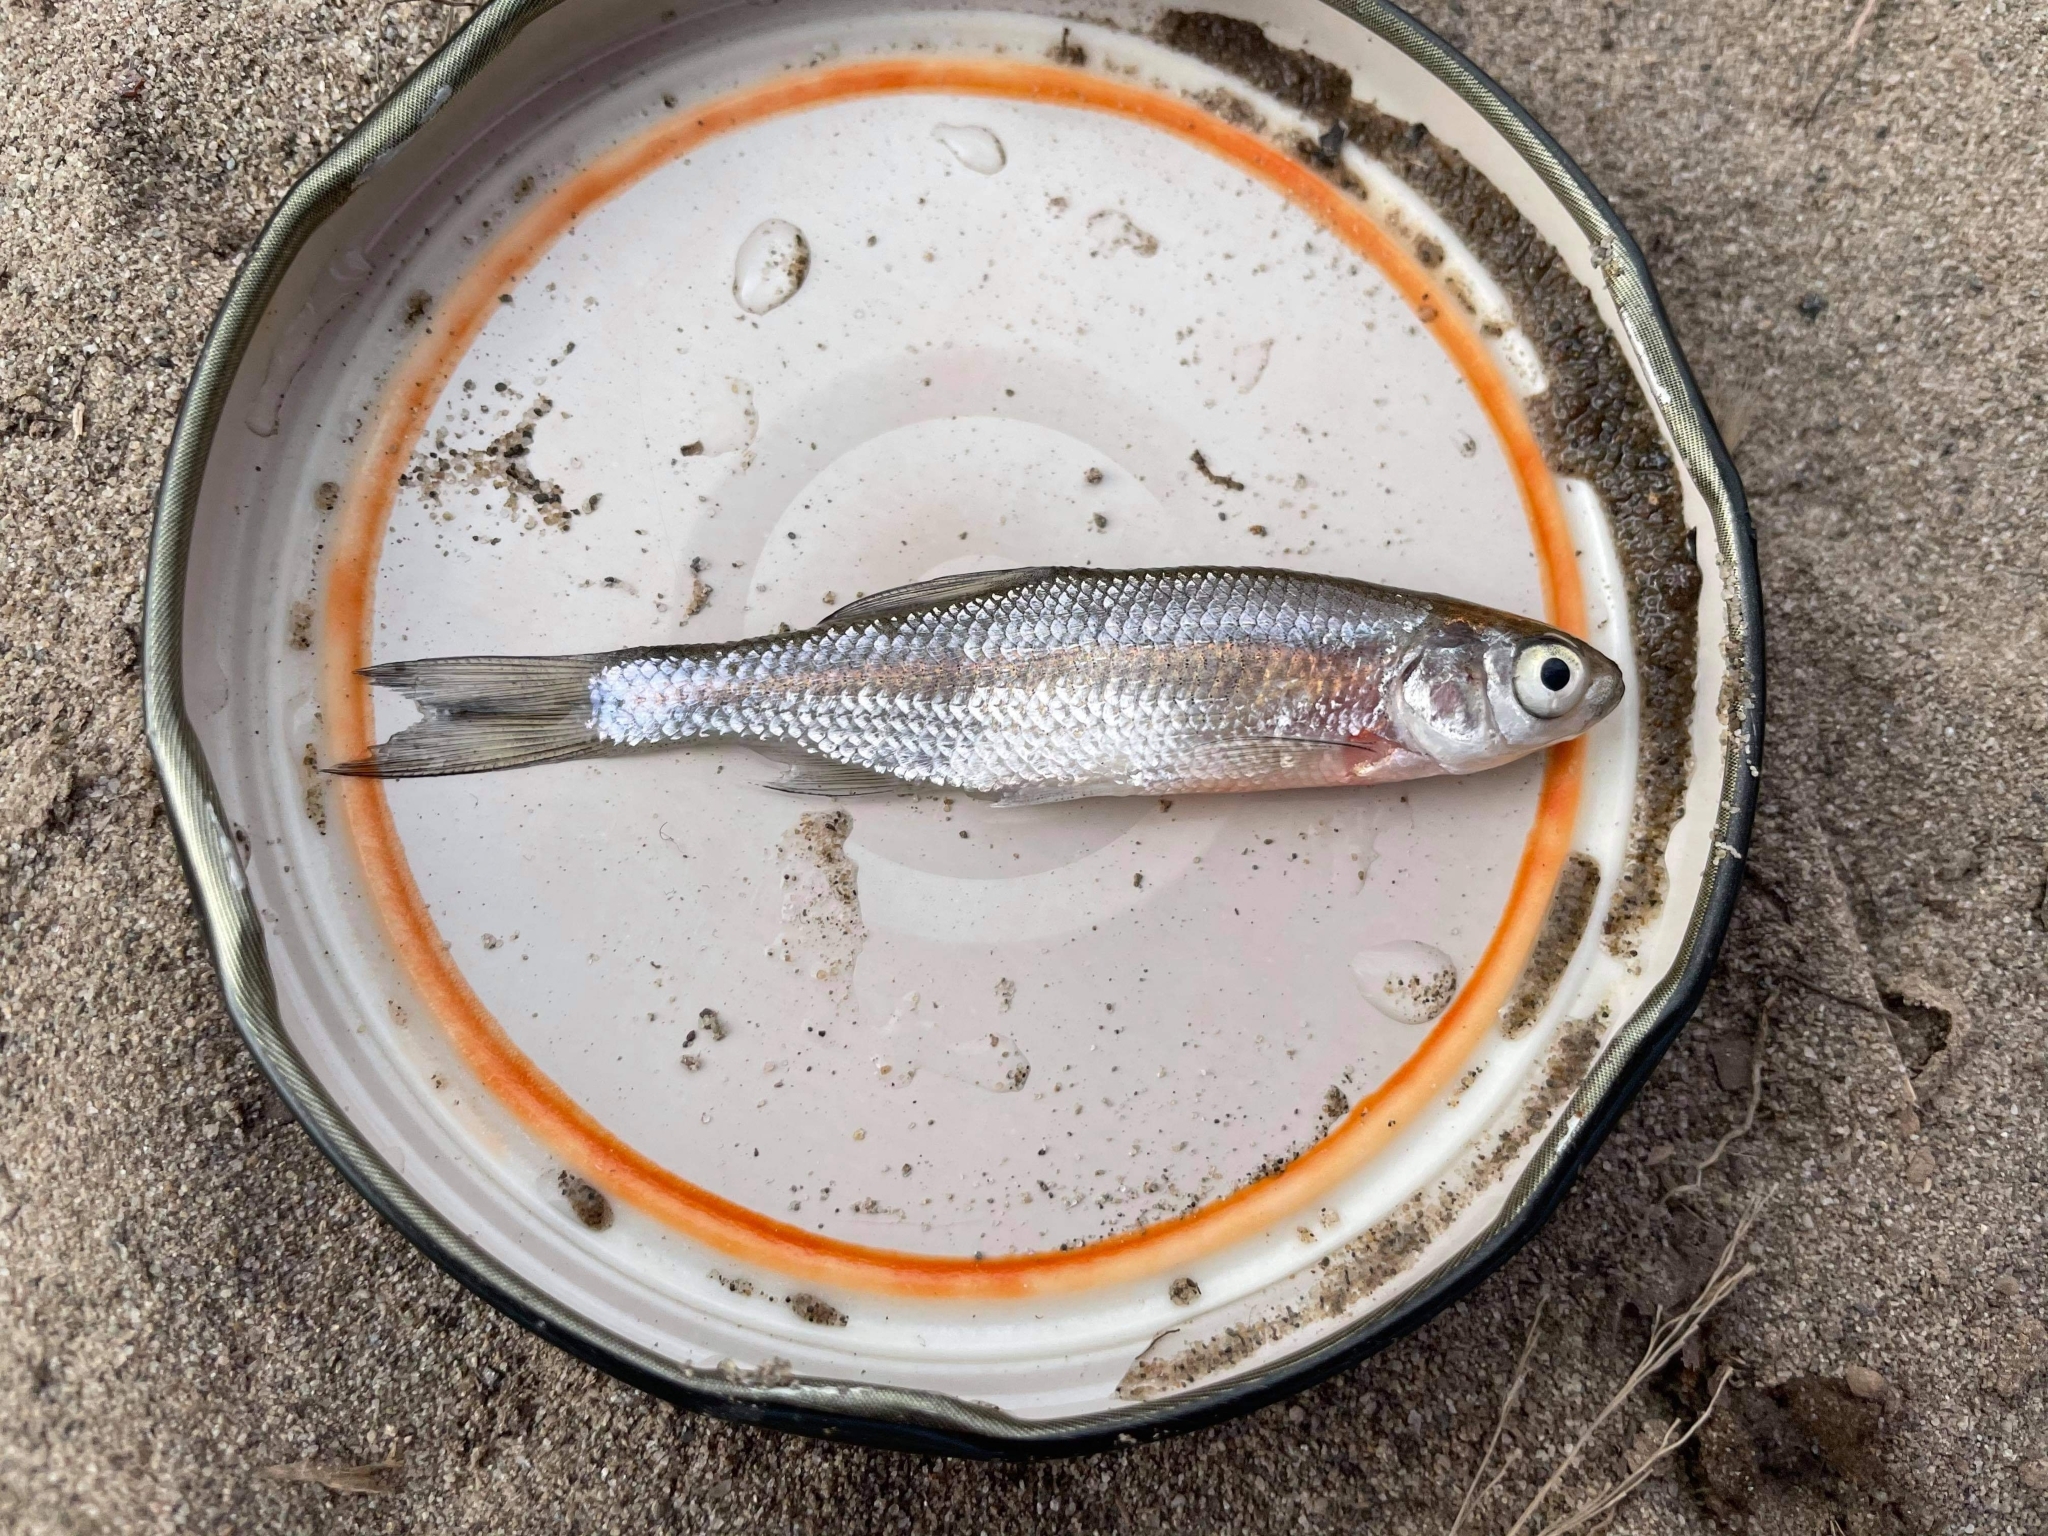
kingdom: Animalia
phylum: Chordata
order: Cypriniformes
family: Cyprinidae
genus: Notemigonus
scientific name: Notemigonus crysoleucas
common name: Golden shiner
